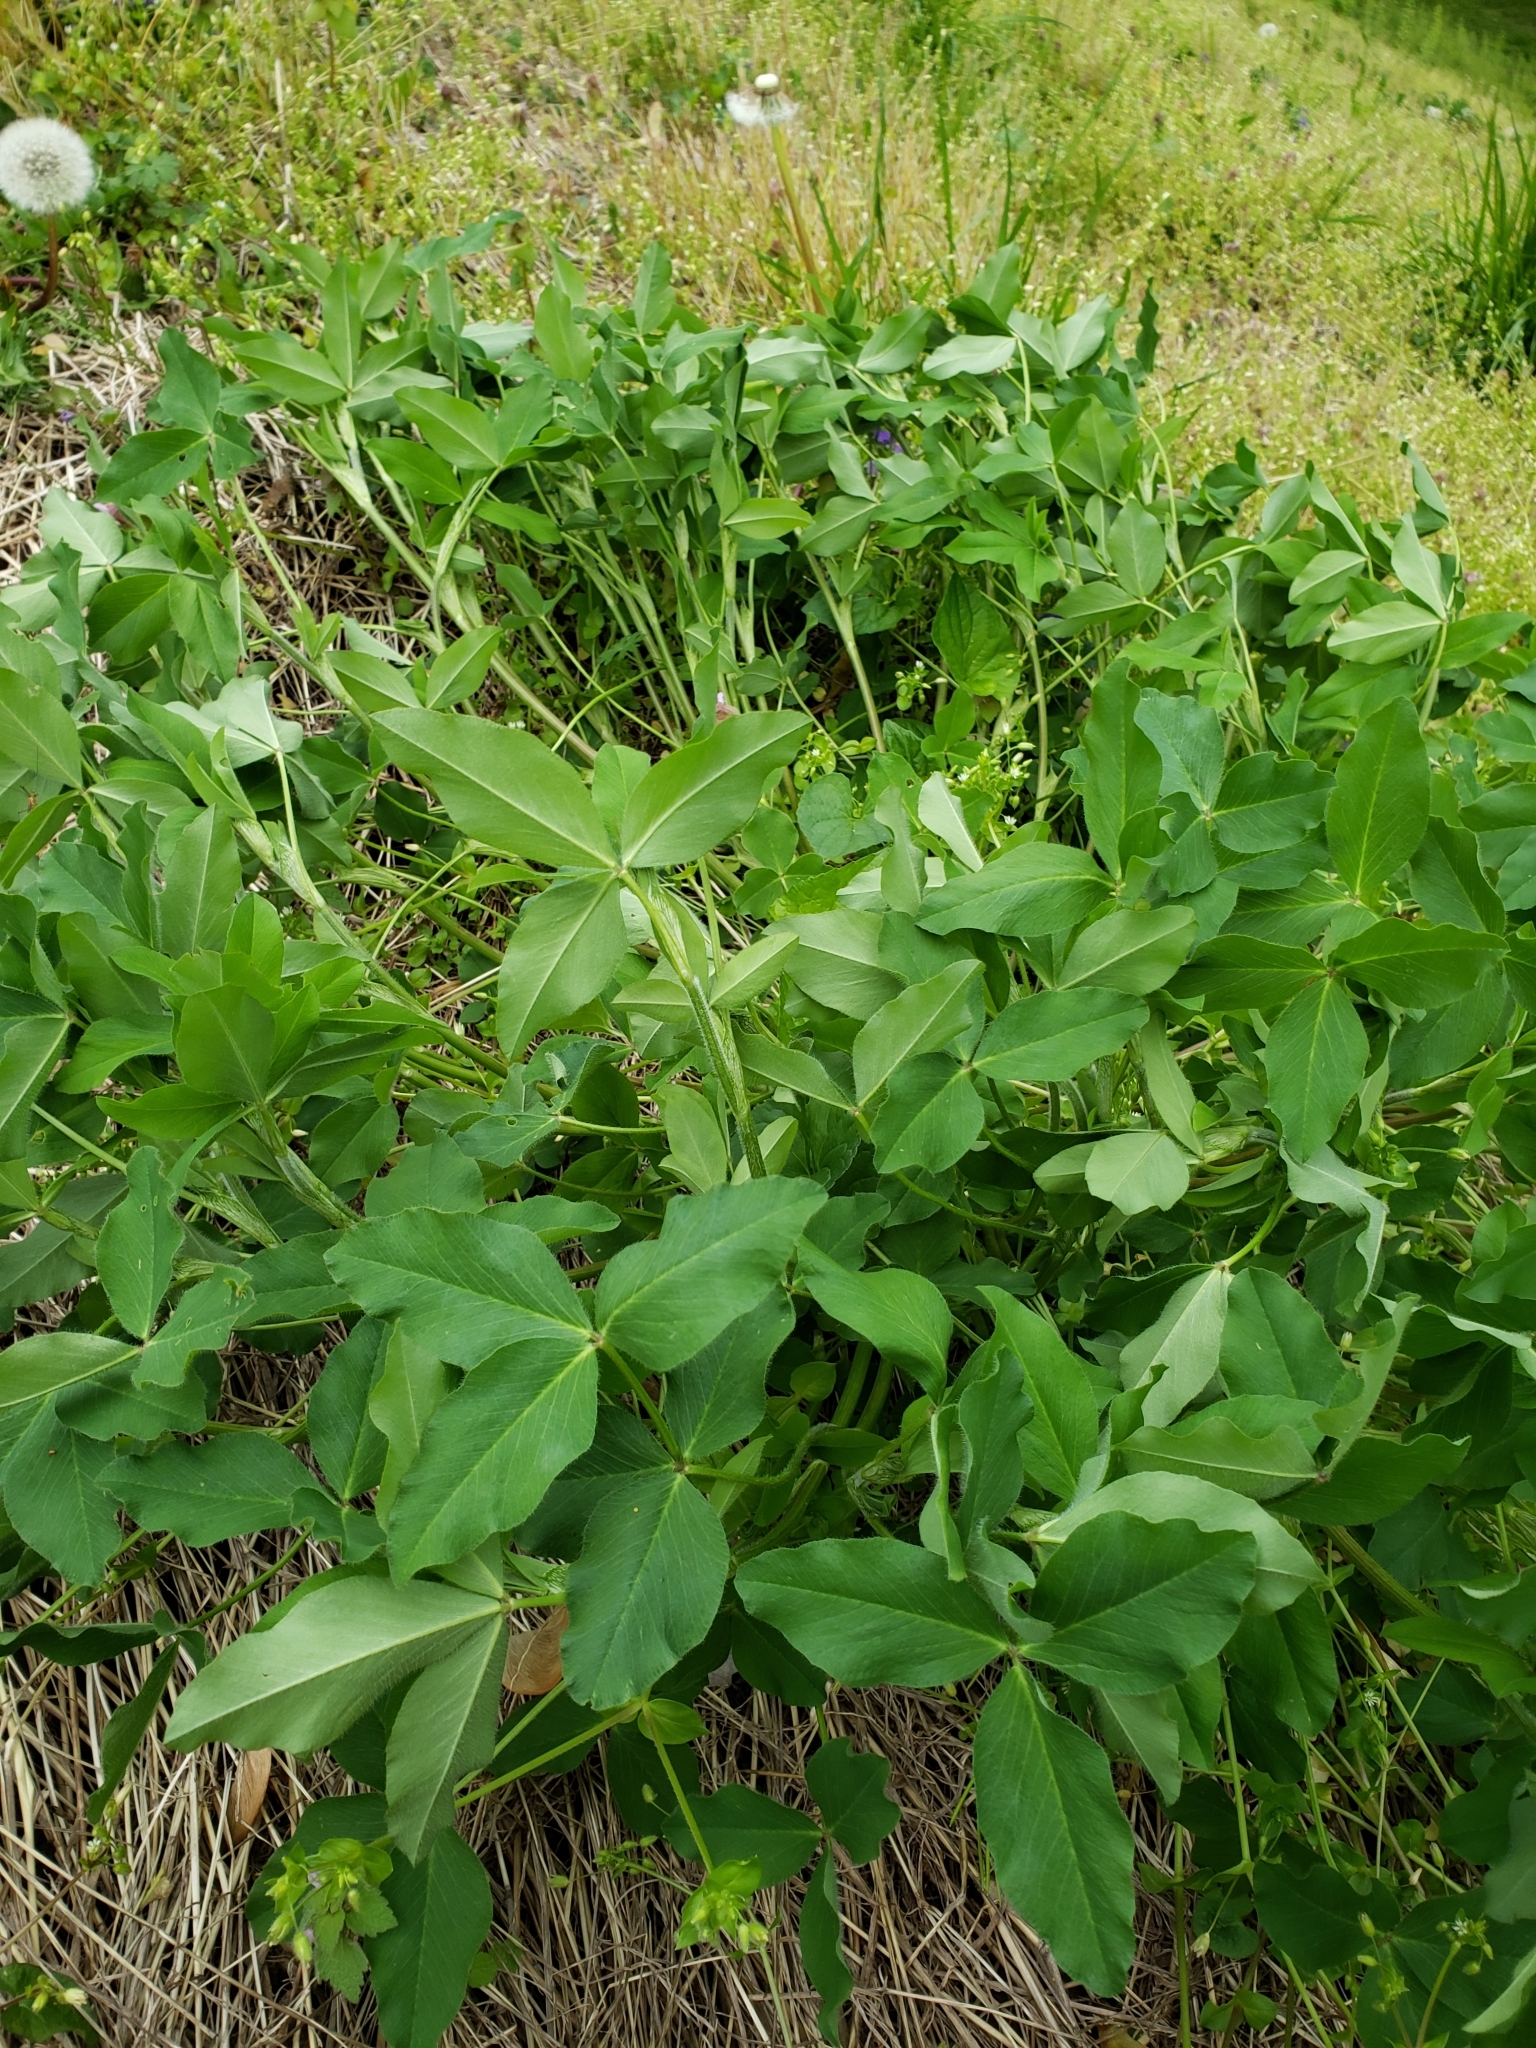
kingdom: Plantae
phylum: Tracheophyta
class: Magnoliopsida
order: Fabales
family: Fabaceae
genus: Trifolium
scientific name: Trifolium pratense
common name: Red clover
